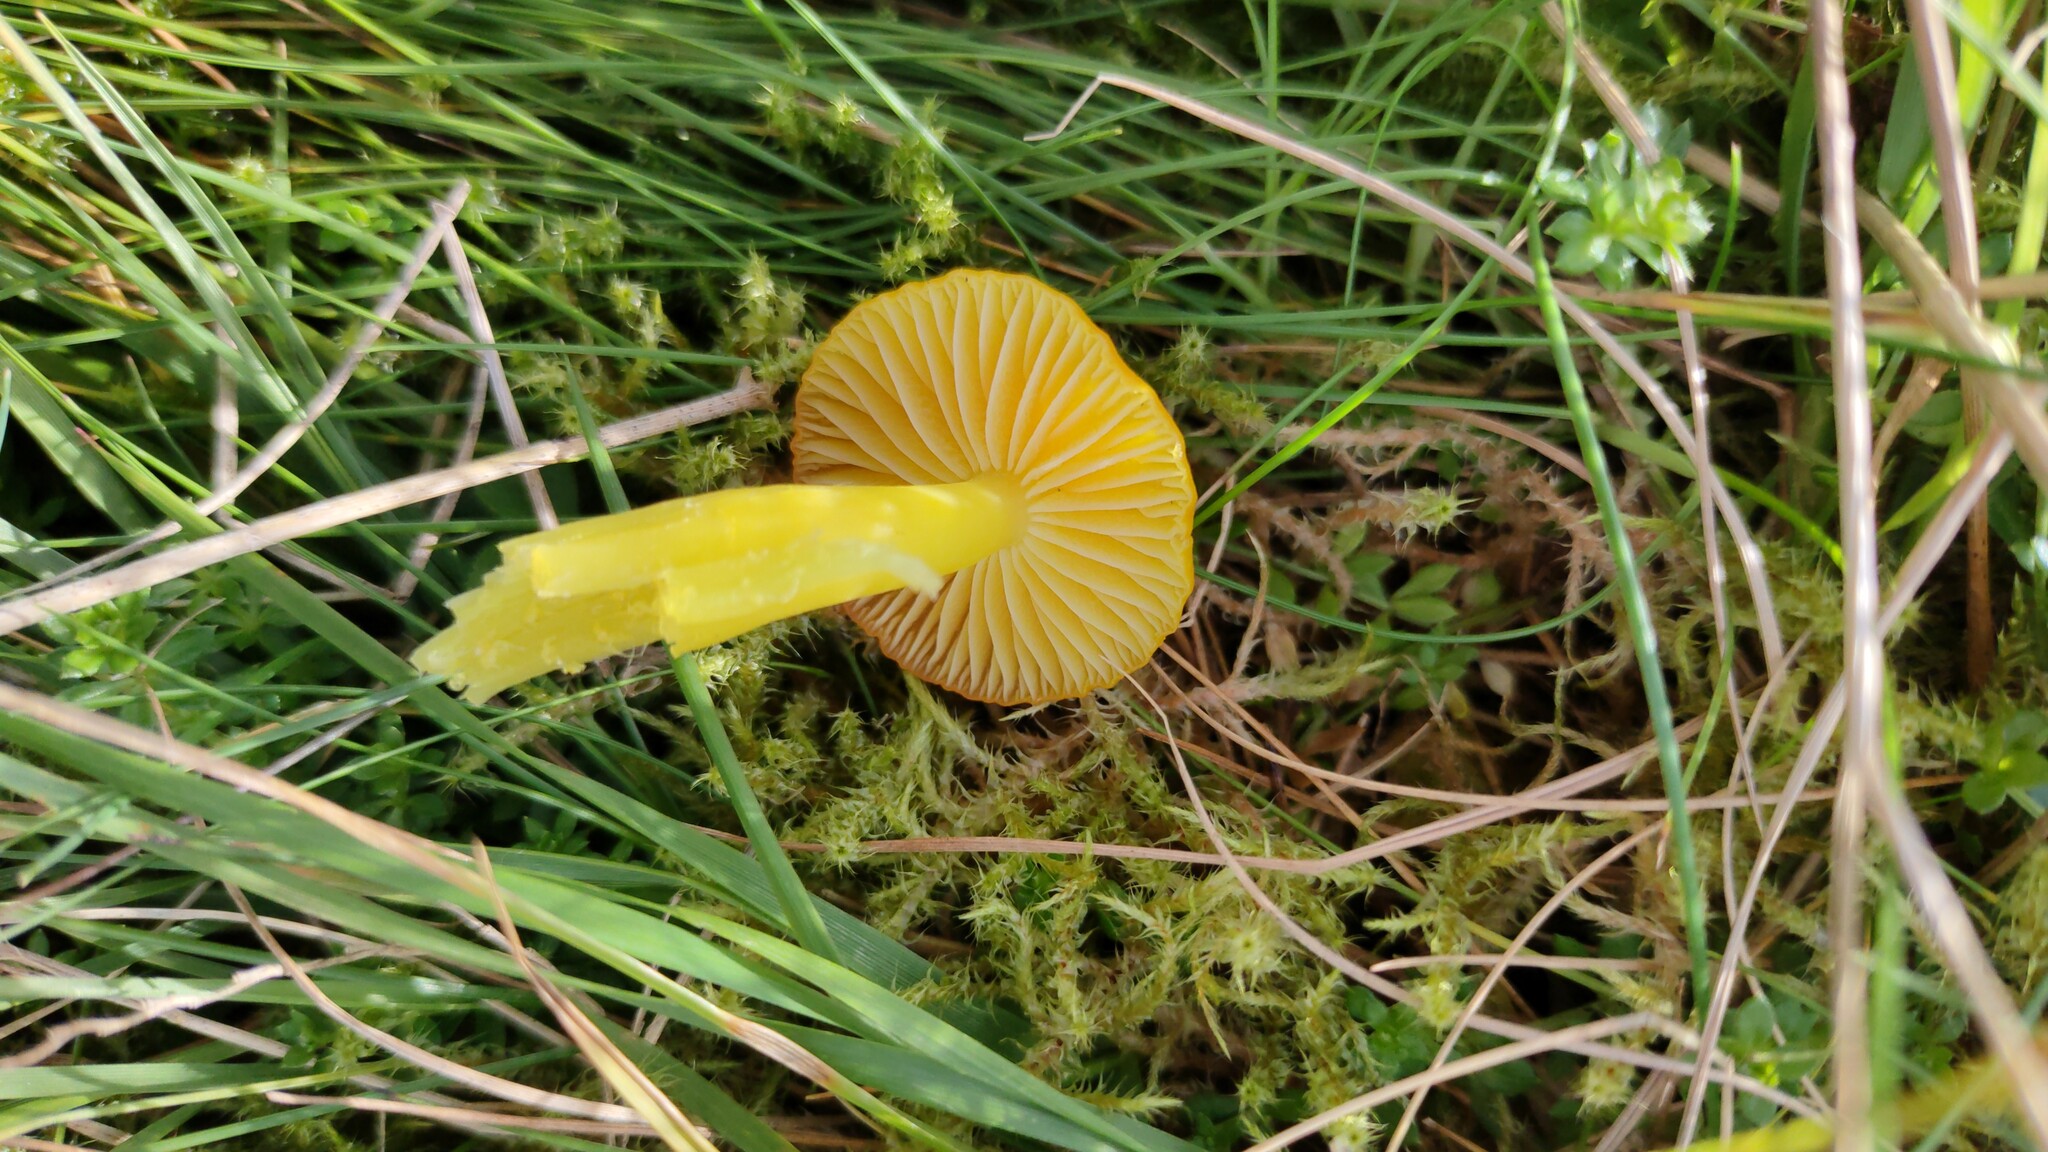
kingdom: Fungi
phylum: Basidiomycota
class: Agaricomycetes
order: Agaricales
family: Hygrophoraceae
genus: Hygrocybe
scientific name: Hygrocybe ceracea
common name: Butter waxcap
